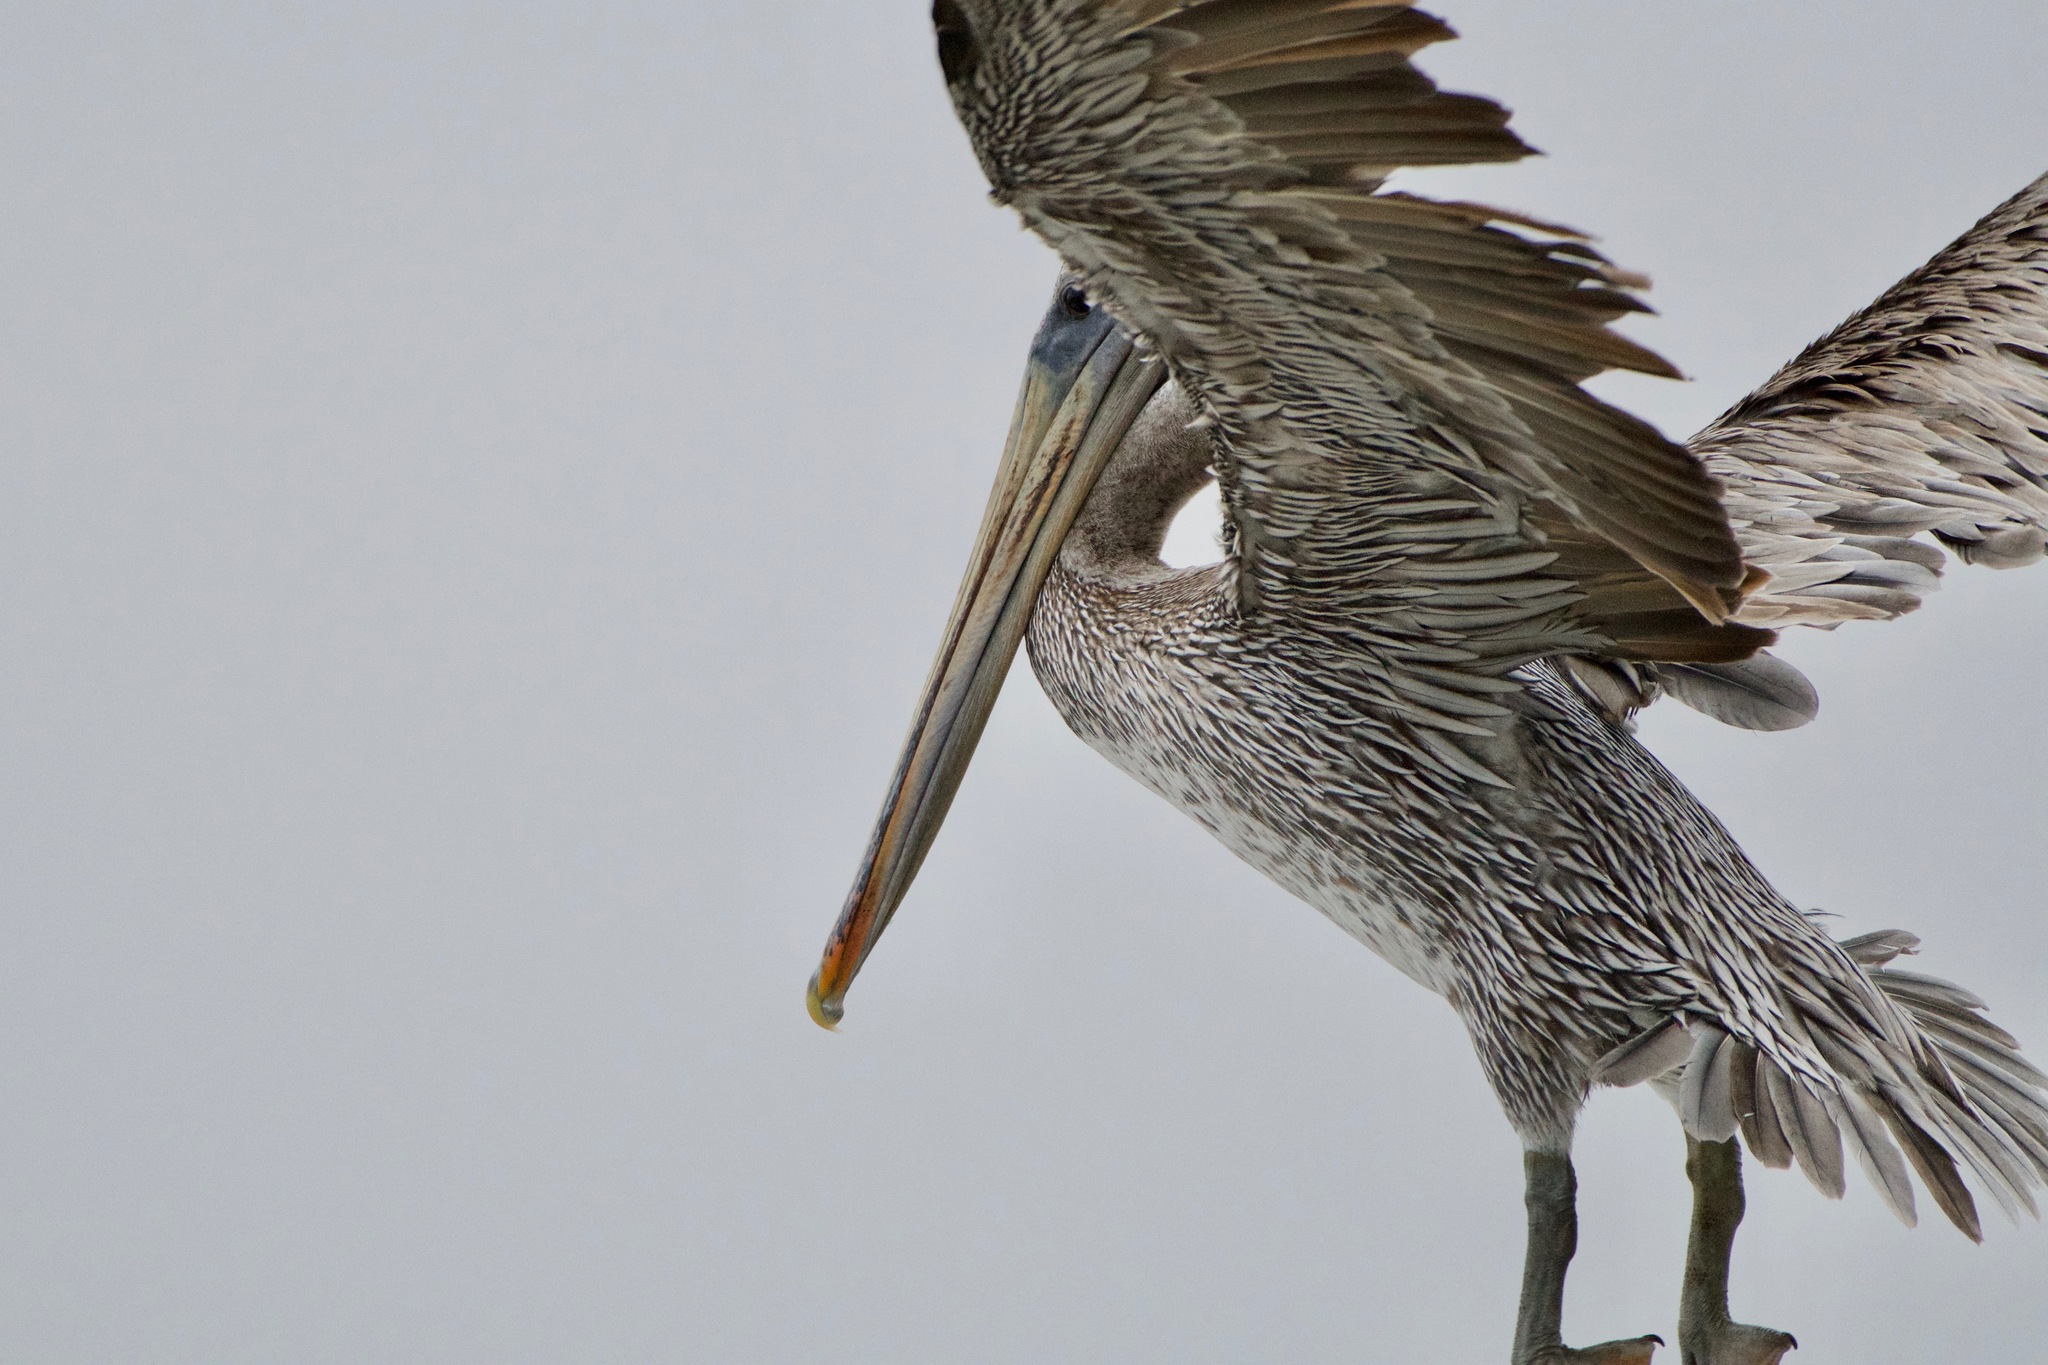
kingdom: Animalia
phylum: Chordata
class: Aves
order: Pelecaniformes
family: Pelecanidae
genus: Pelecanus
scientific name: Pelecanus occidentalis
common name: Brown pelican
